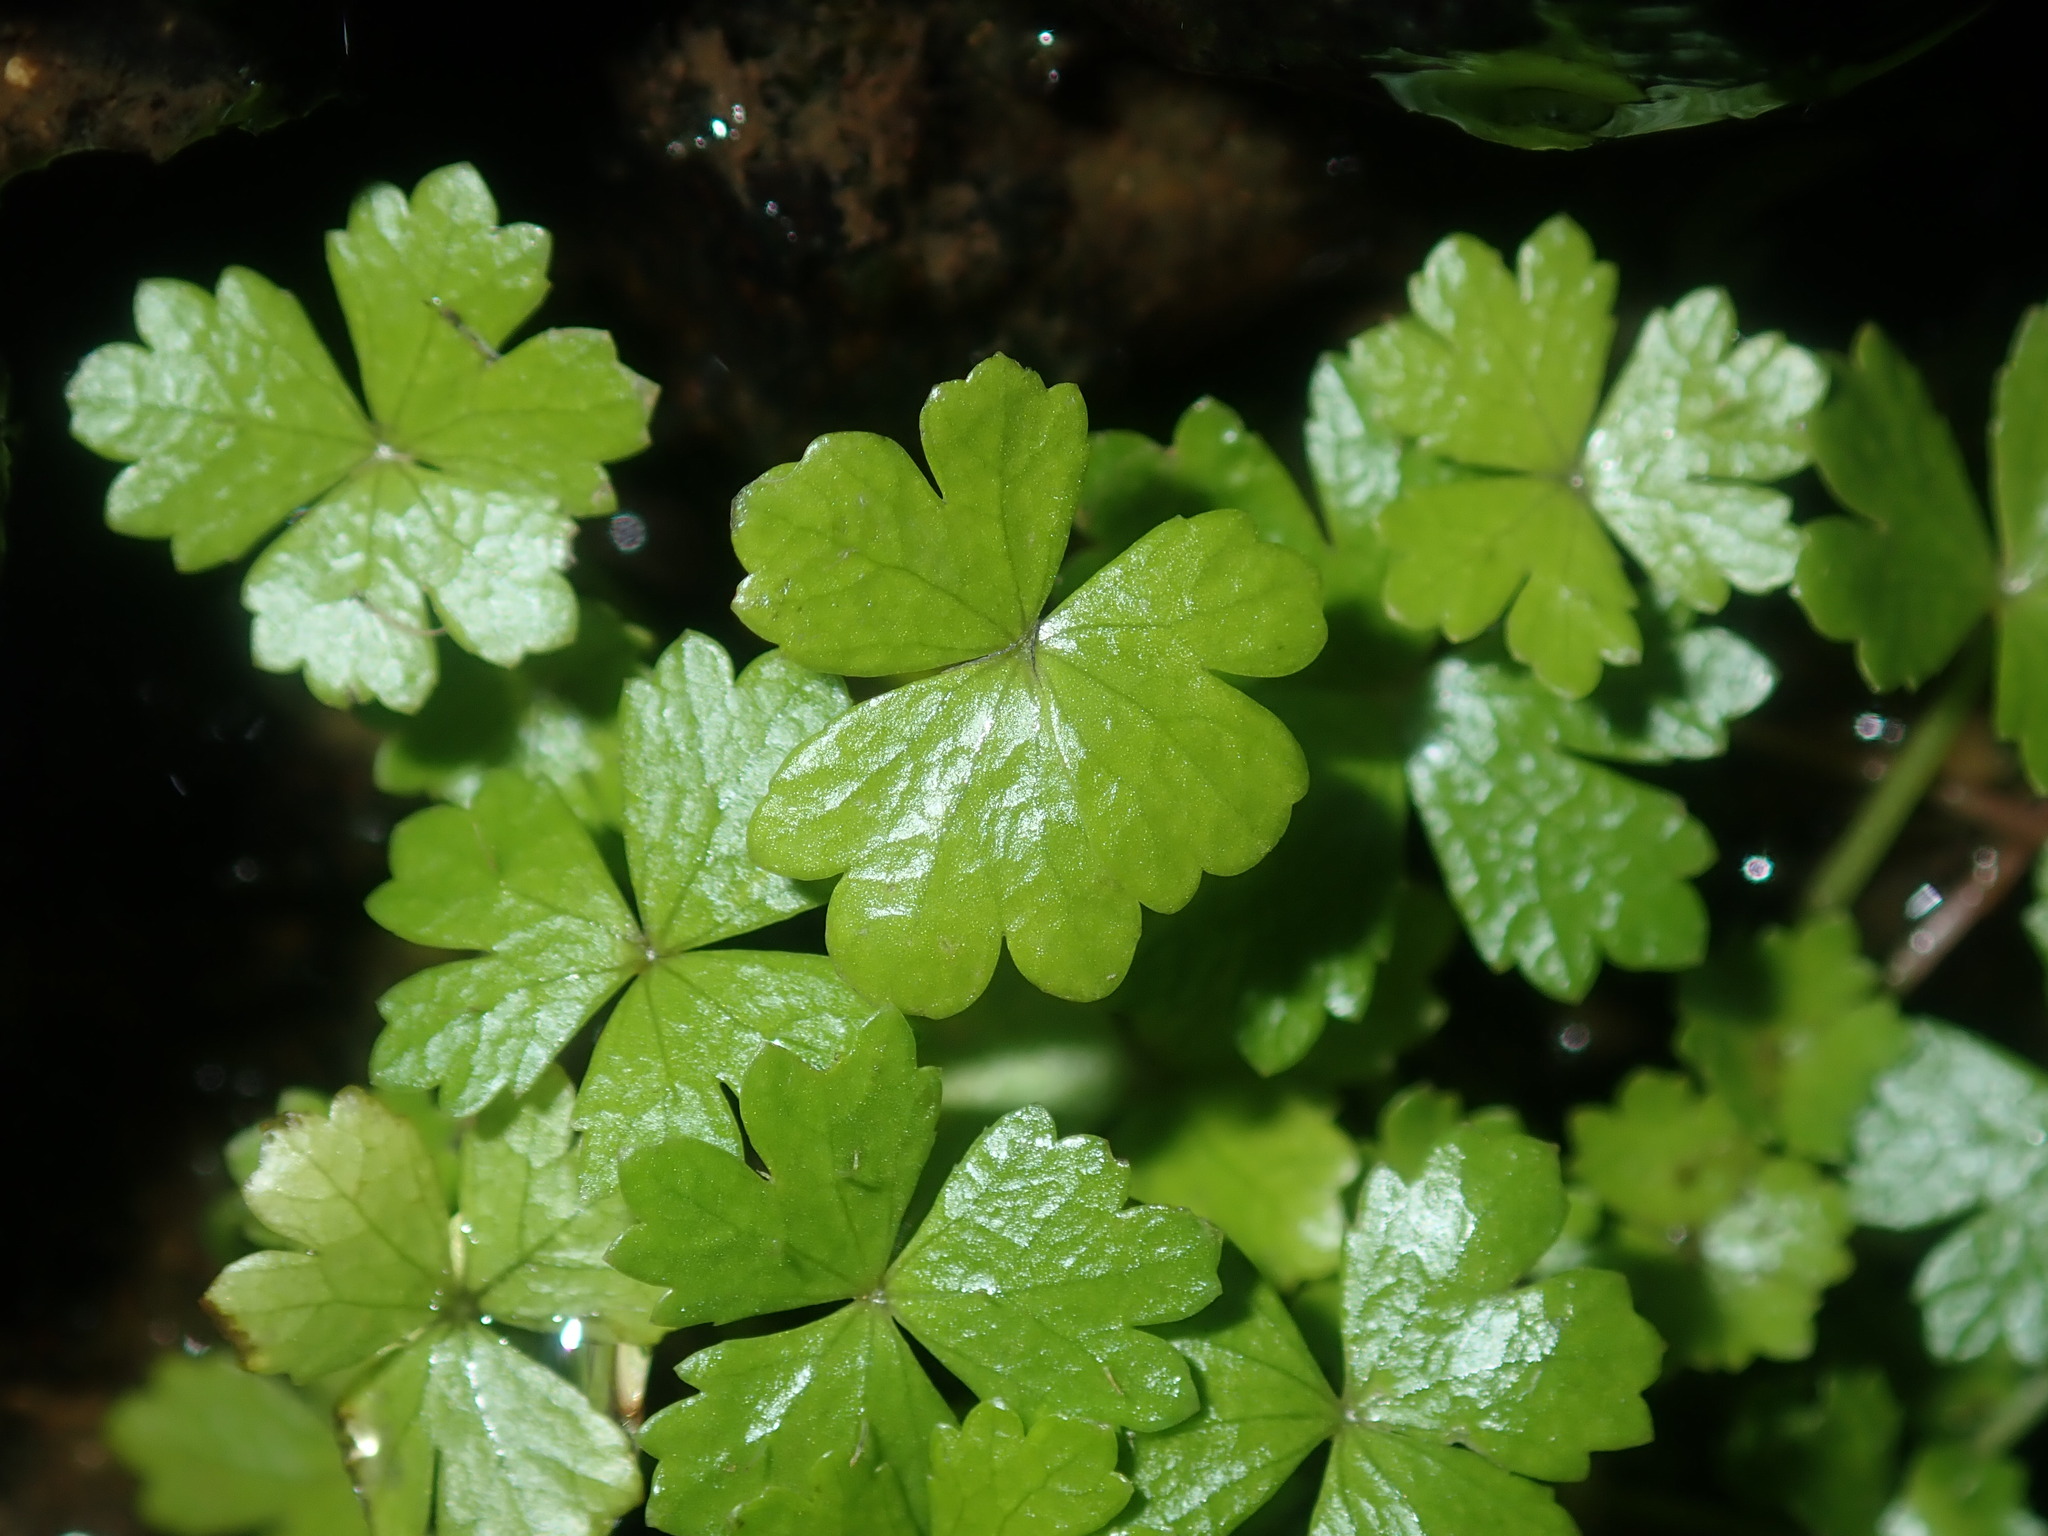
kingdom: Plantae
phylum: Tracheophyta
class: Magnoliopsida
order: Apiales
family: Araliaceae
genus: Hydrocotyle
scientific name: Hydrocotyle tripartita
